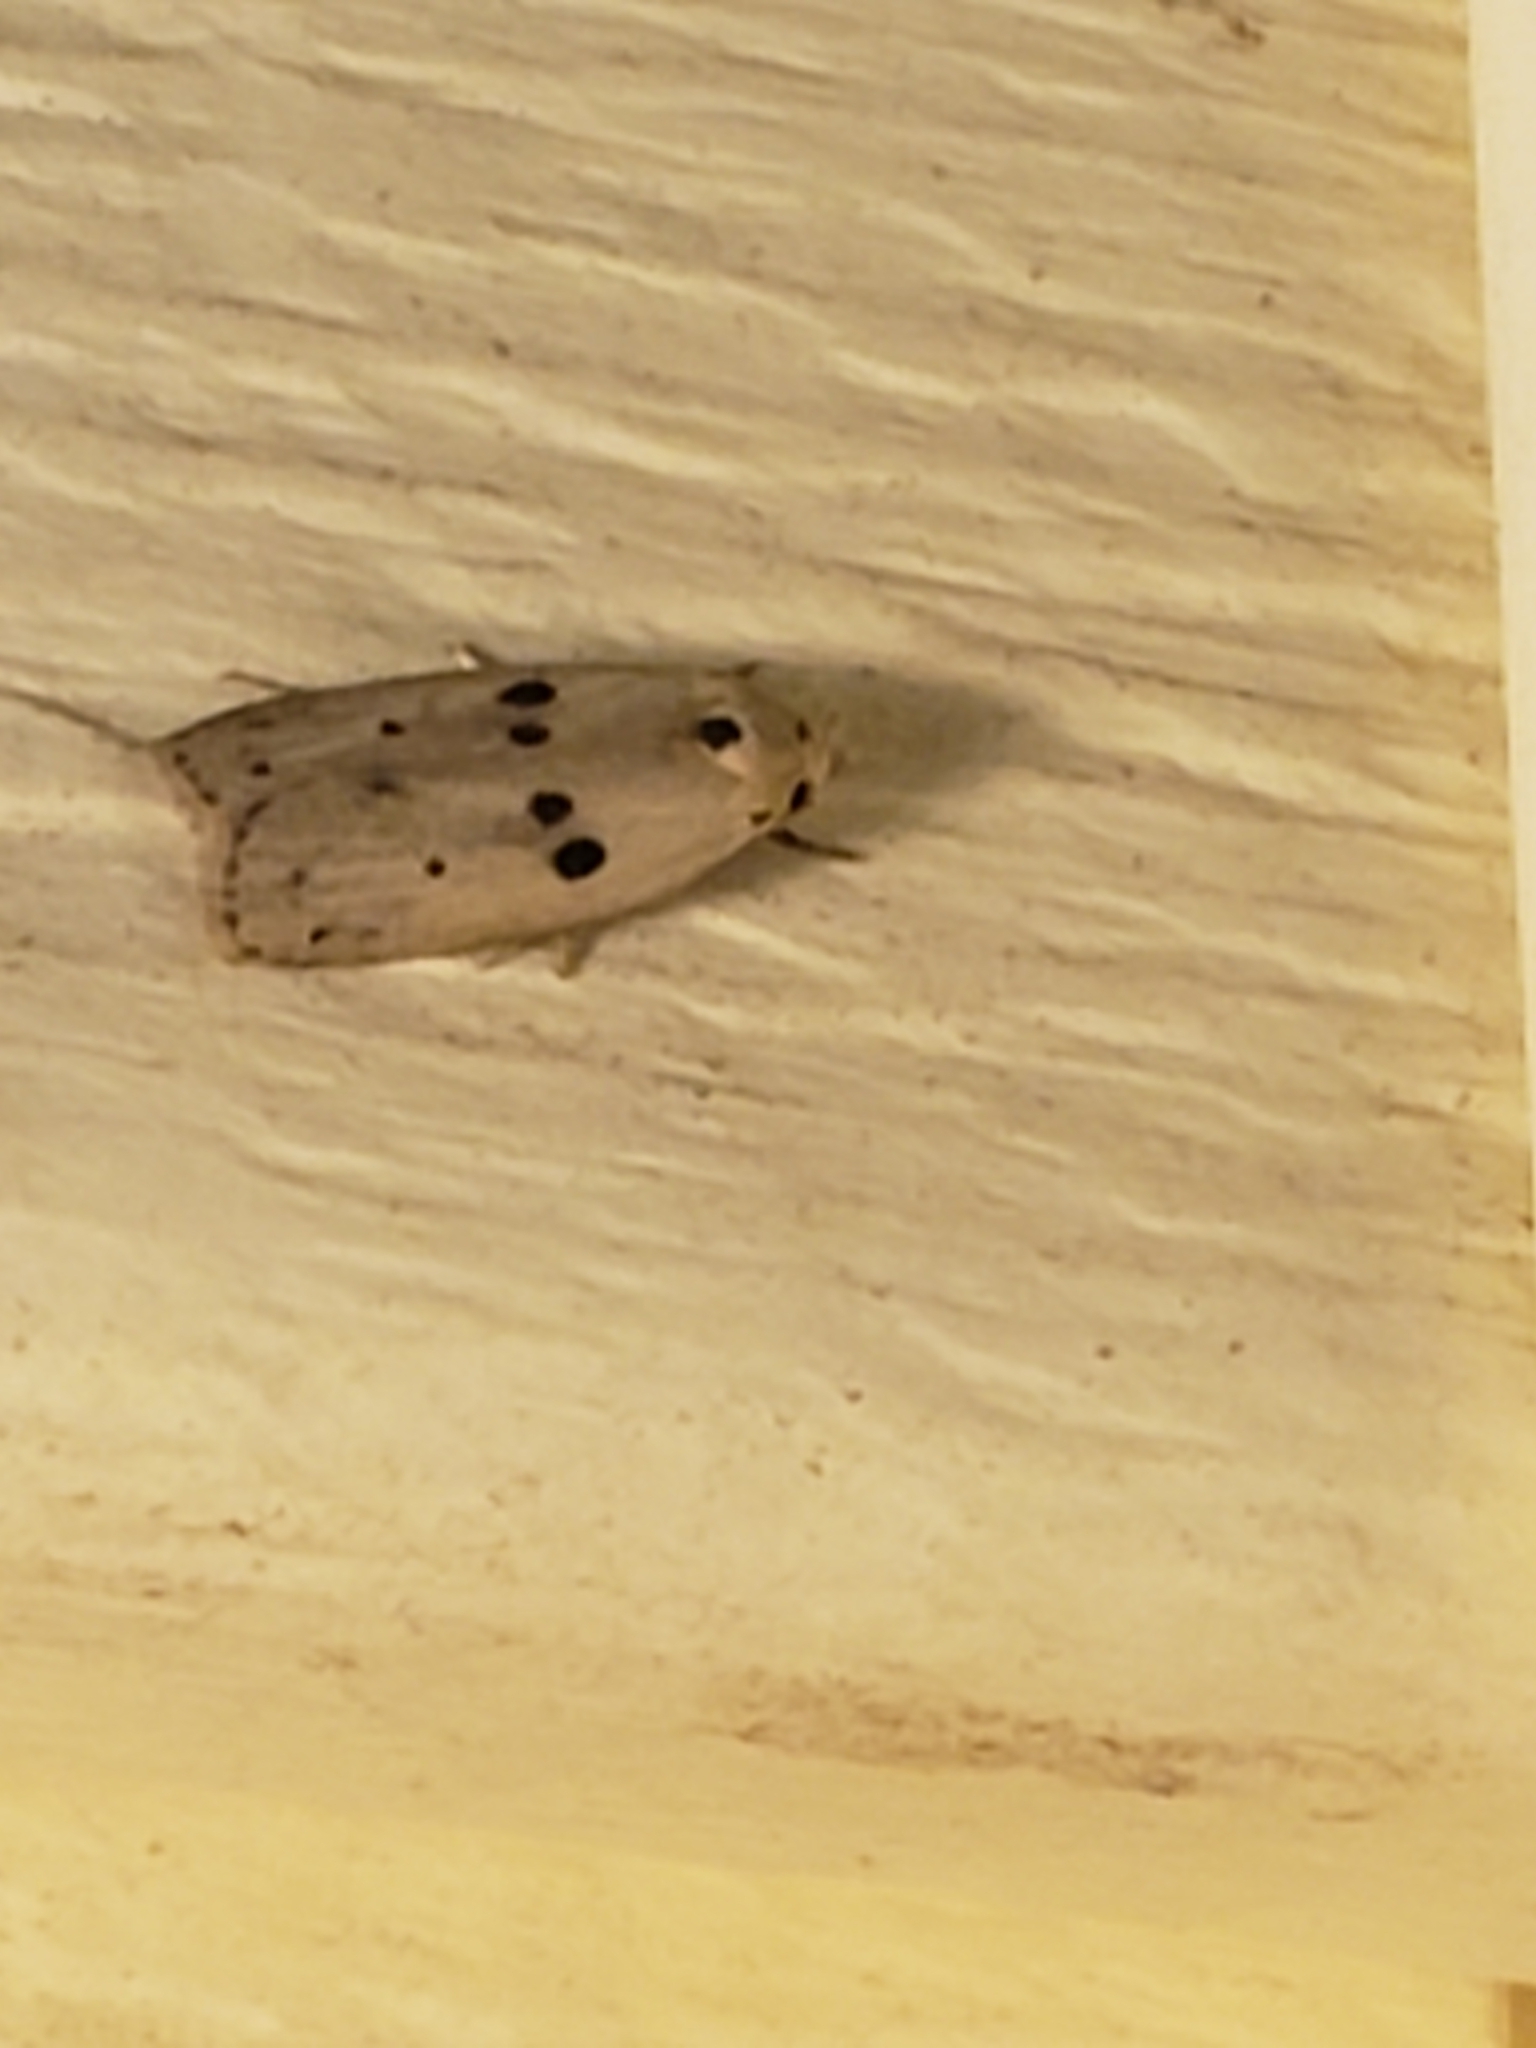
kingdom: Animalia
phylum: Arthropoda
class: Insecta
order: Lepidoptera
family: Peleopodidae
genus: Scythropiodes
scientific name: Scythropiodes issikii
